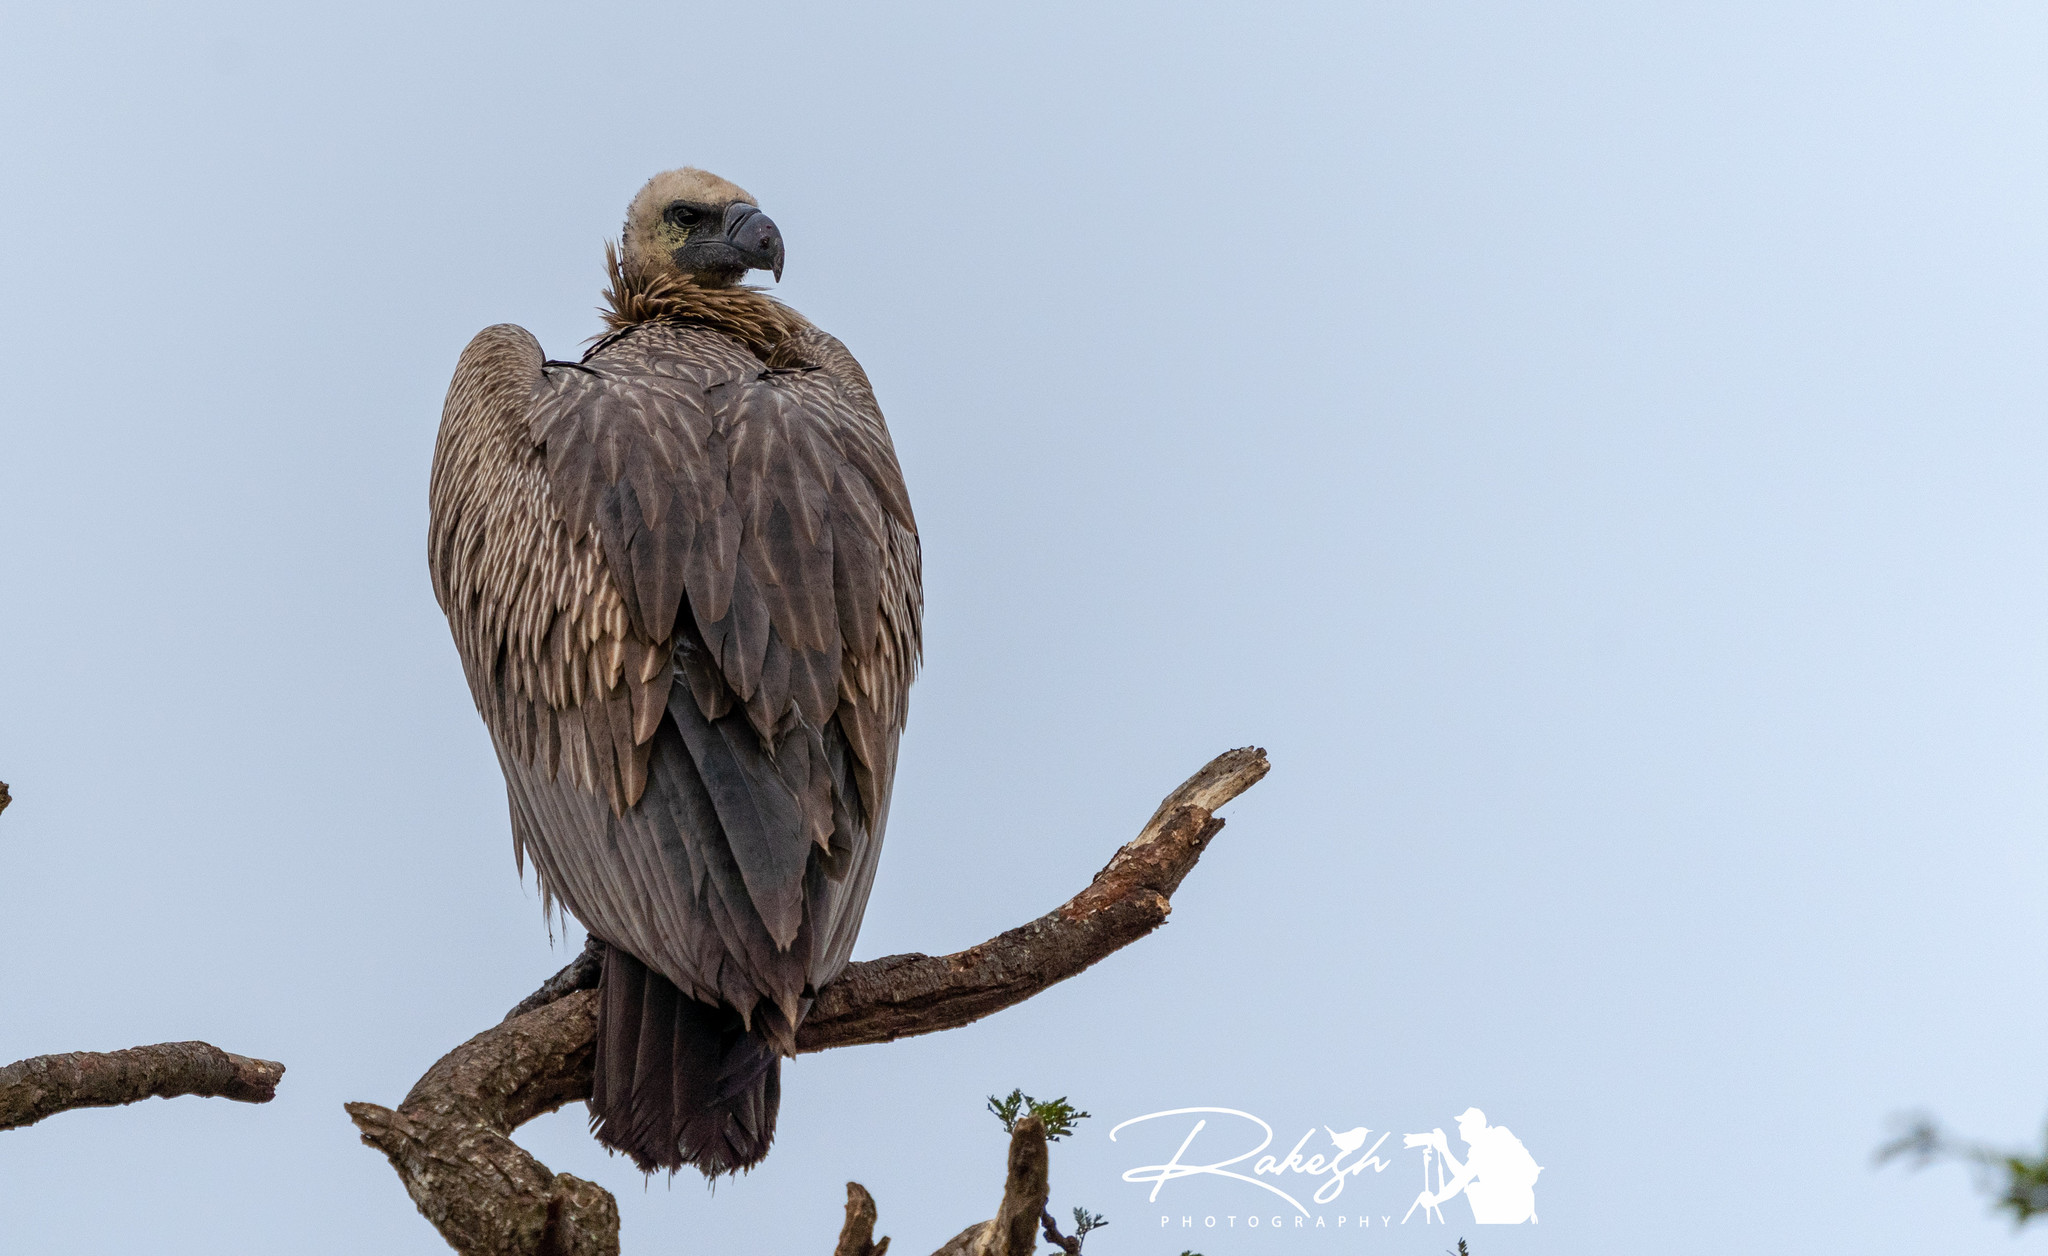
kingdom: Animalia
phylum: Chordata
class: Aves
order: Accipitriformes
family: Accipitridae
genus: Gyps
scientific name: Gyps africanus
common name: White-backed vulture
